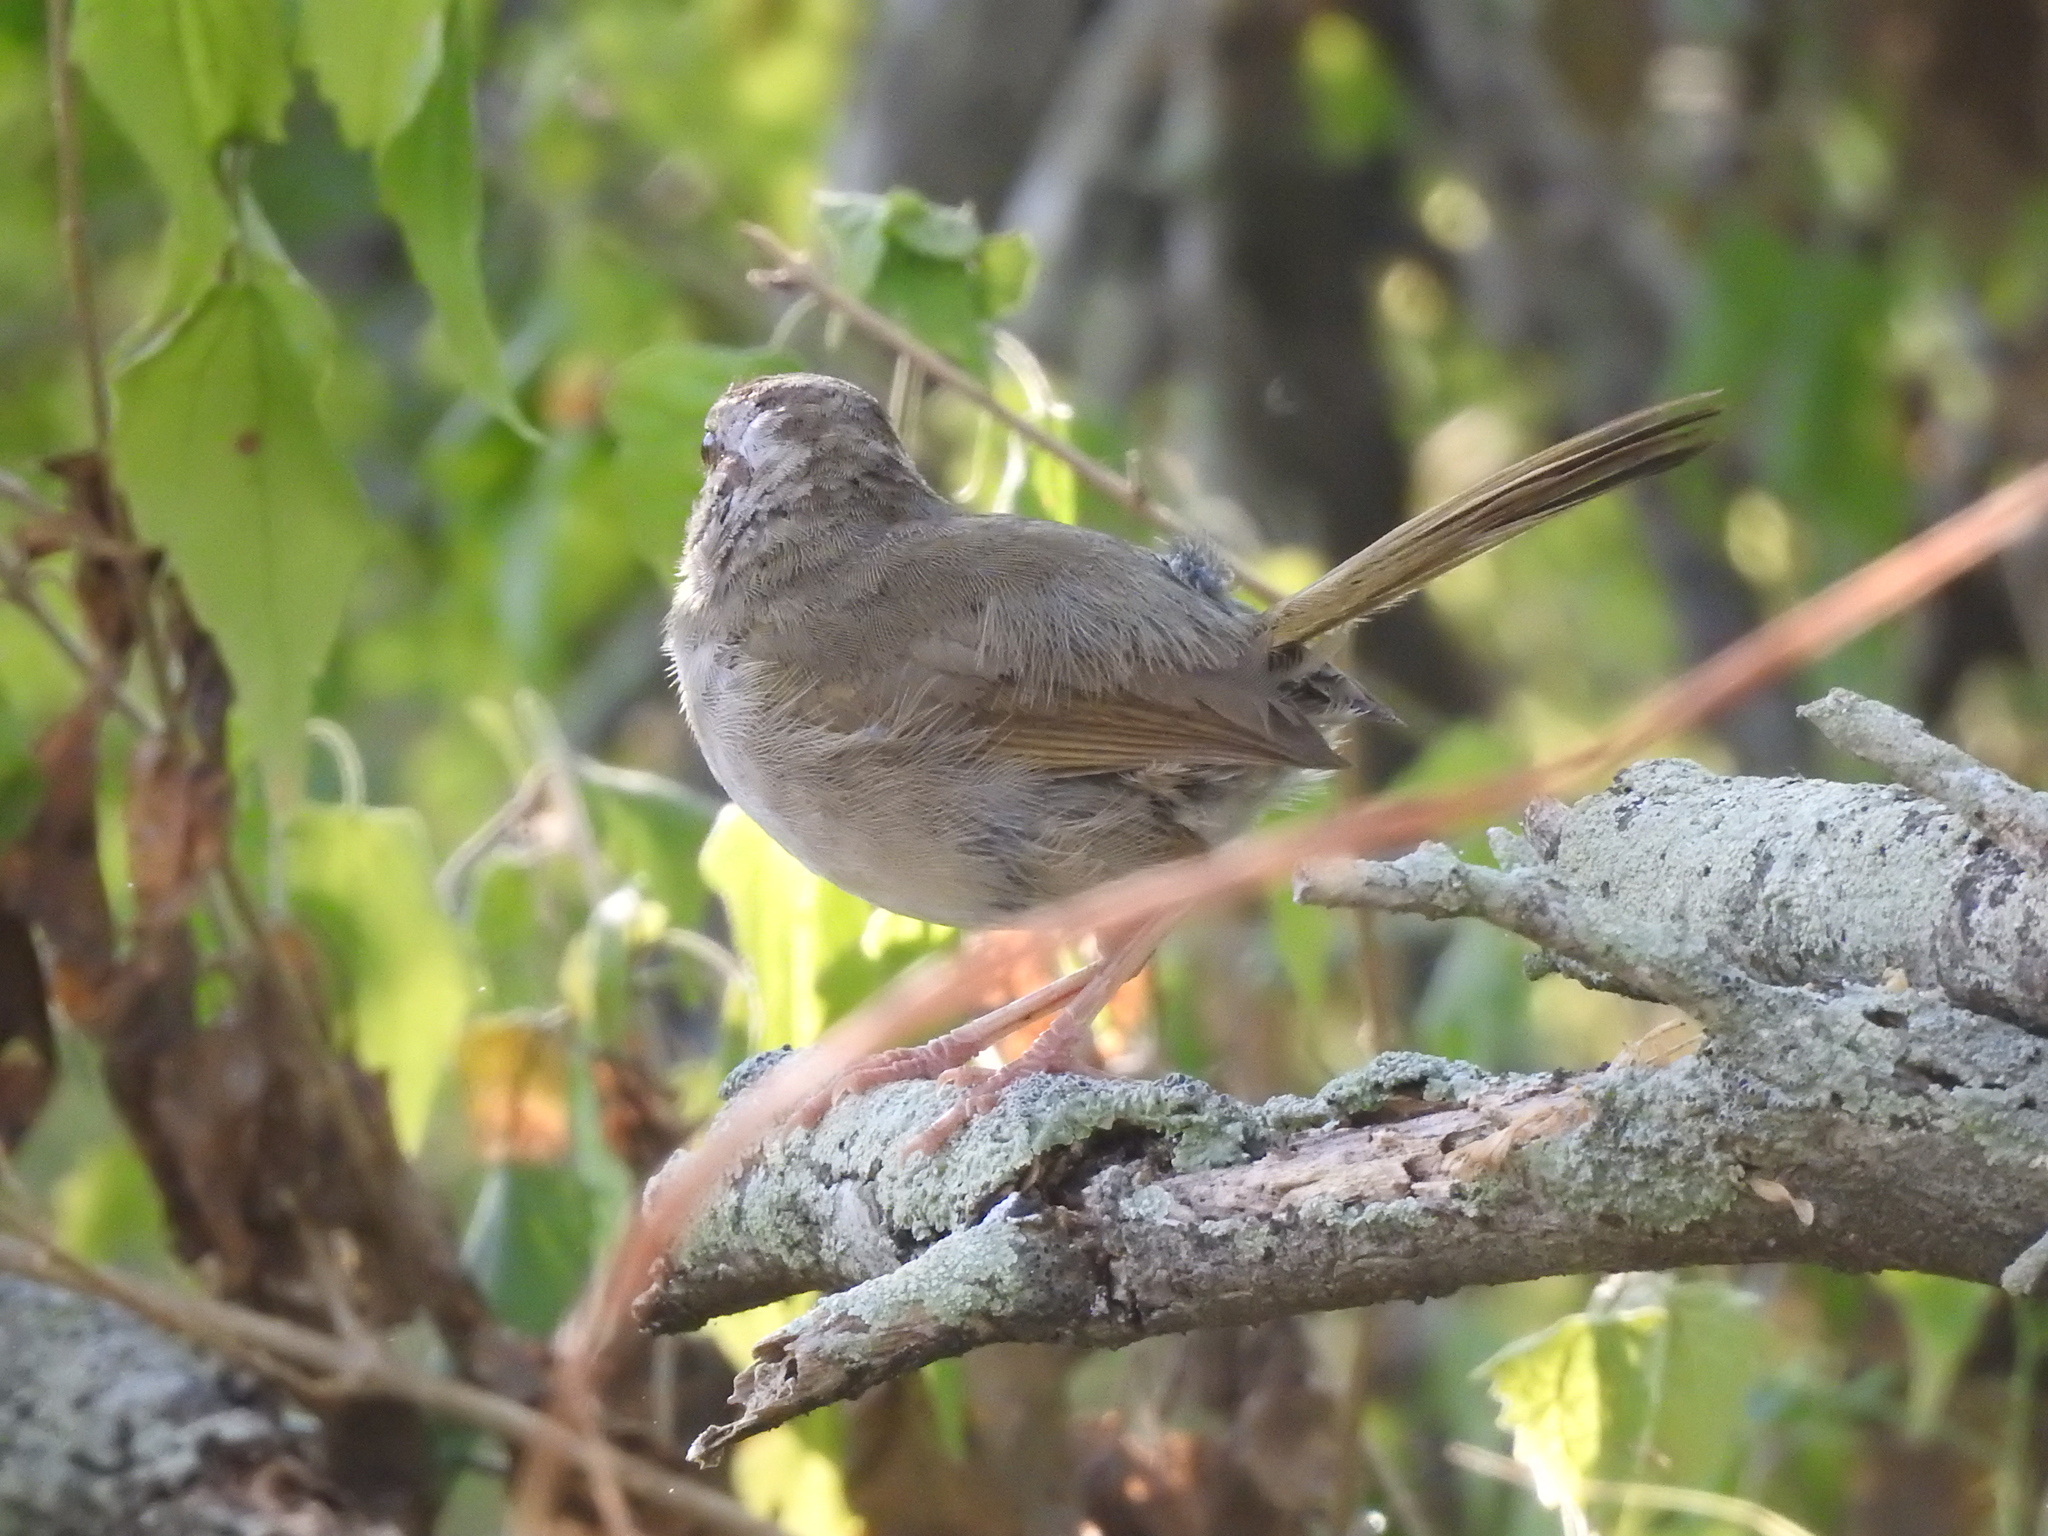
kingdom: Animalia
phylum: Chordata
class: Aves
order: Passeriformes
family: Passerellidae
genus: Arremonops
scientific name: Arremonops rufivirgatus
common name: Olive sparrow
